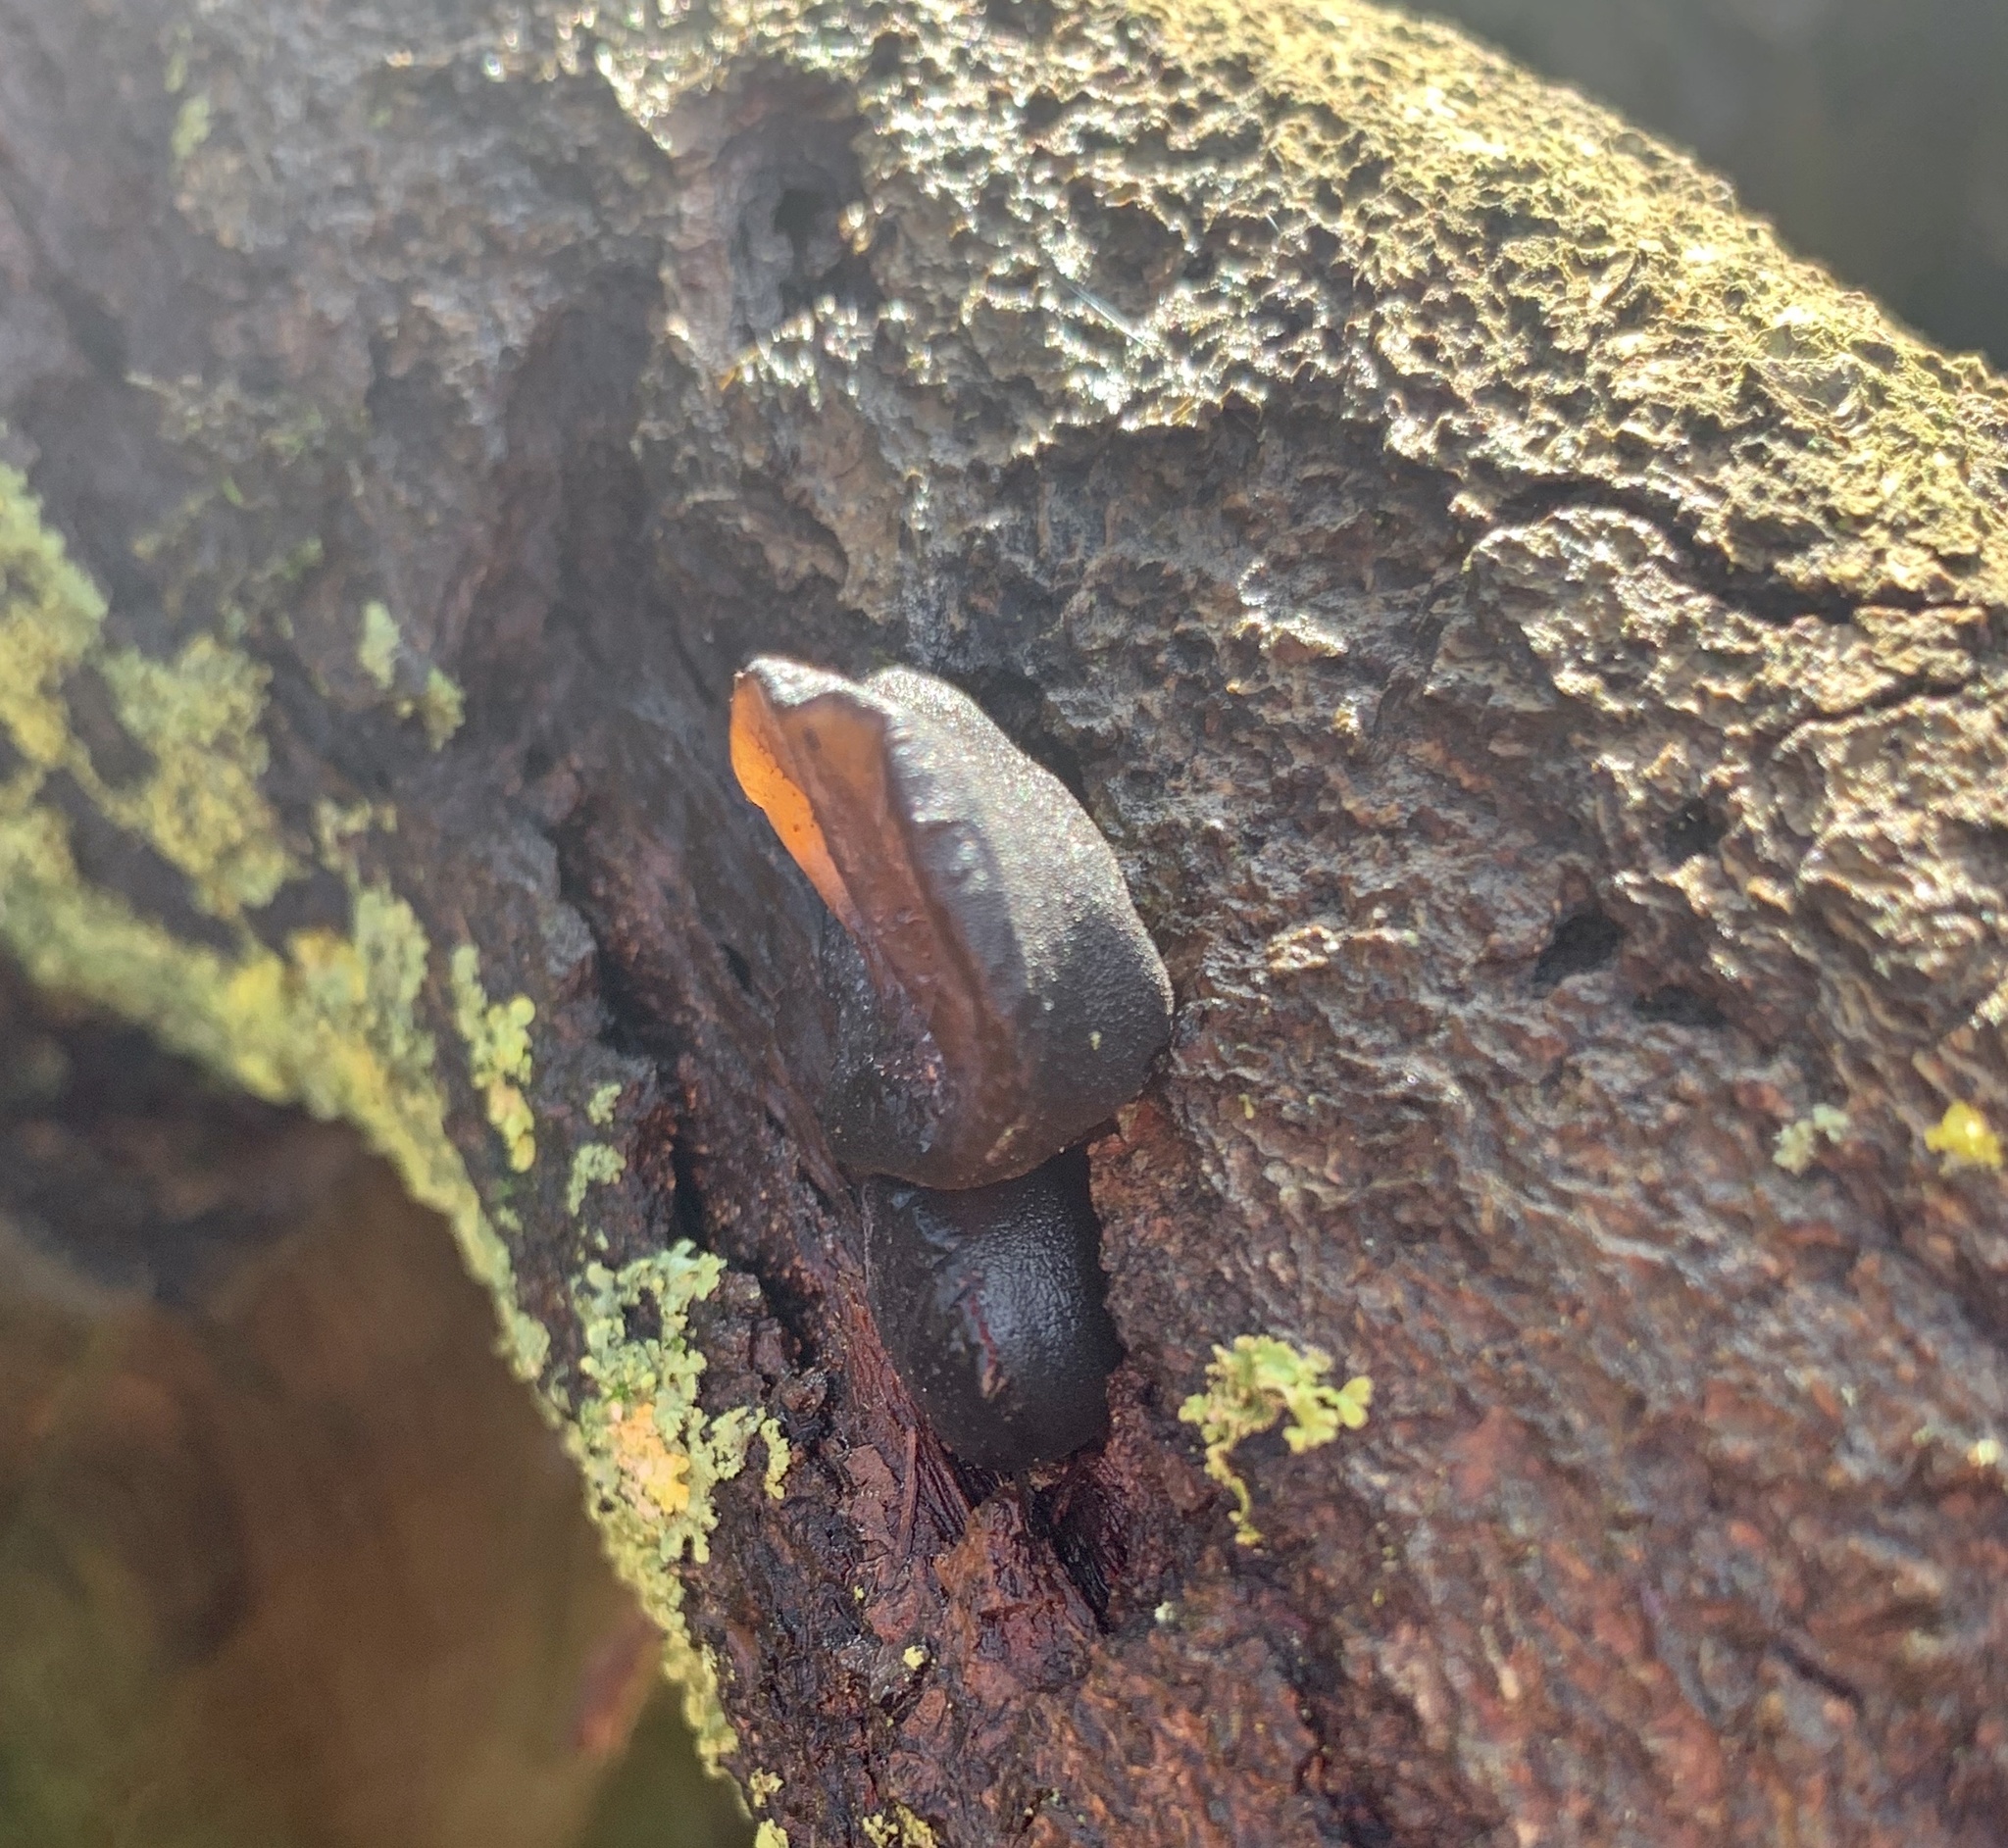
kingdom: Fungi
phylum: Basidiomycota
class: Agaricomycetes
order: Auriculariales
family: Auriculariaceae
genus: Exidia
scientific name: Exidia recisa
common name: Amber jelly
